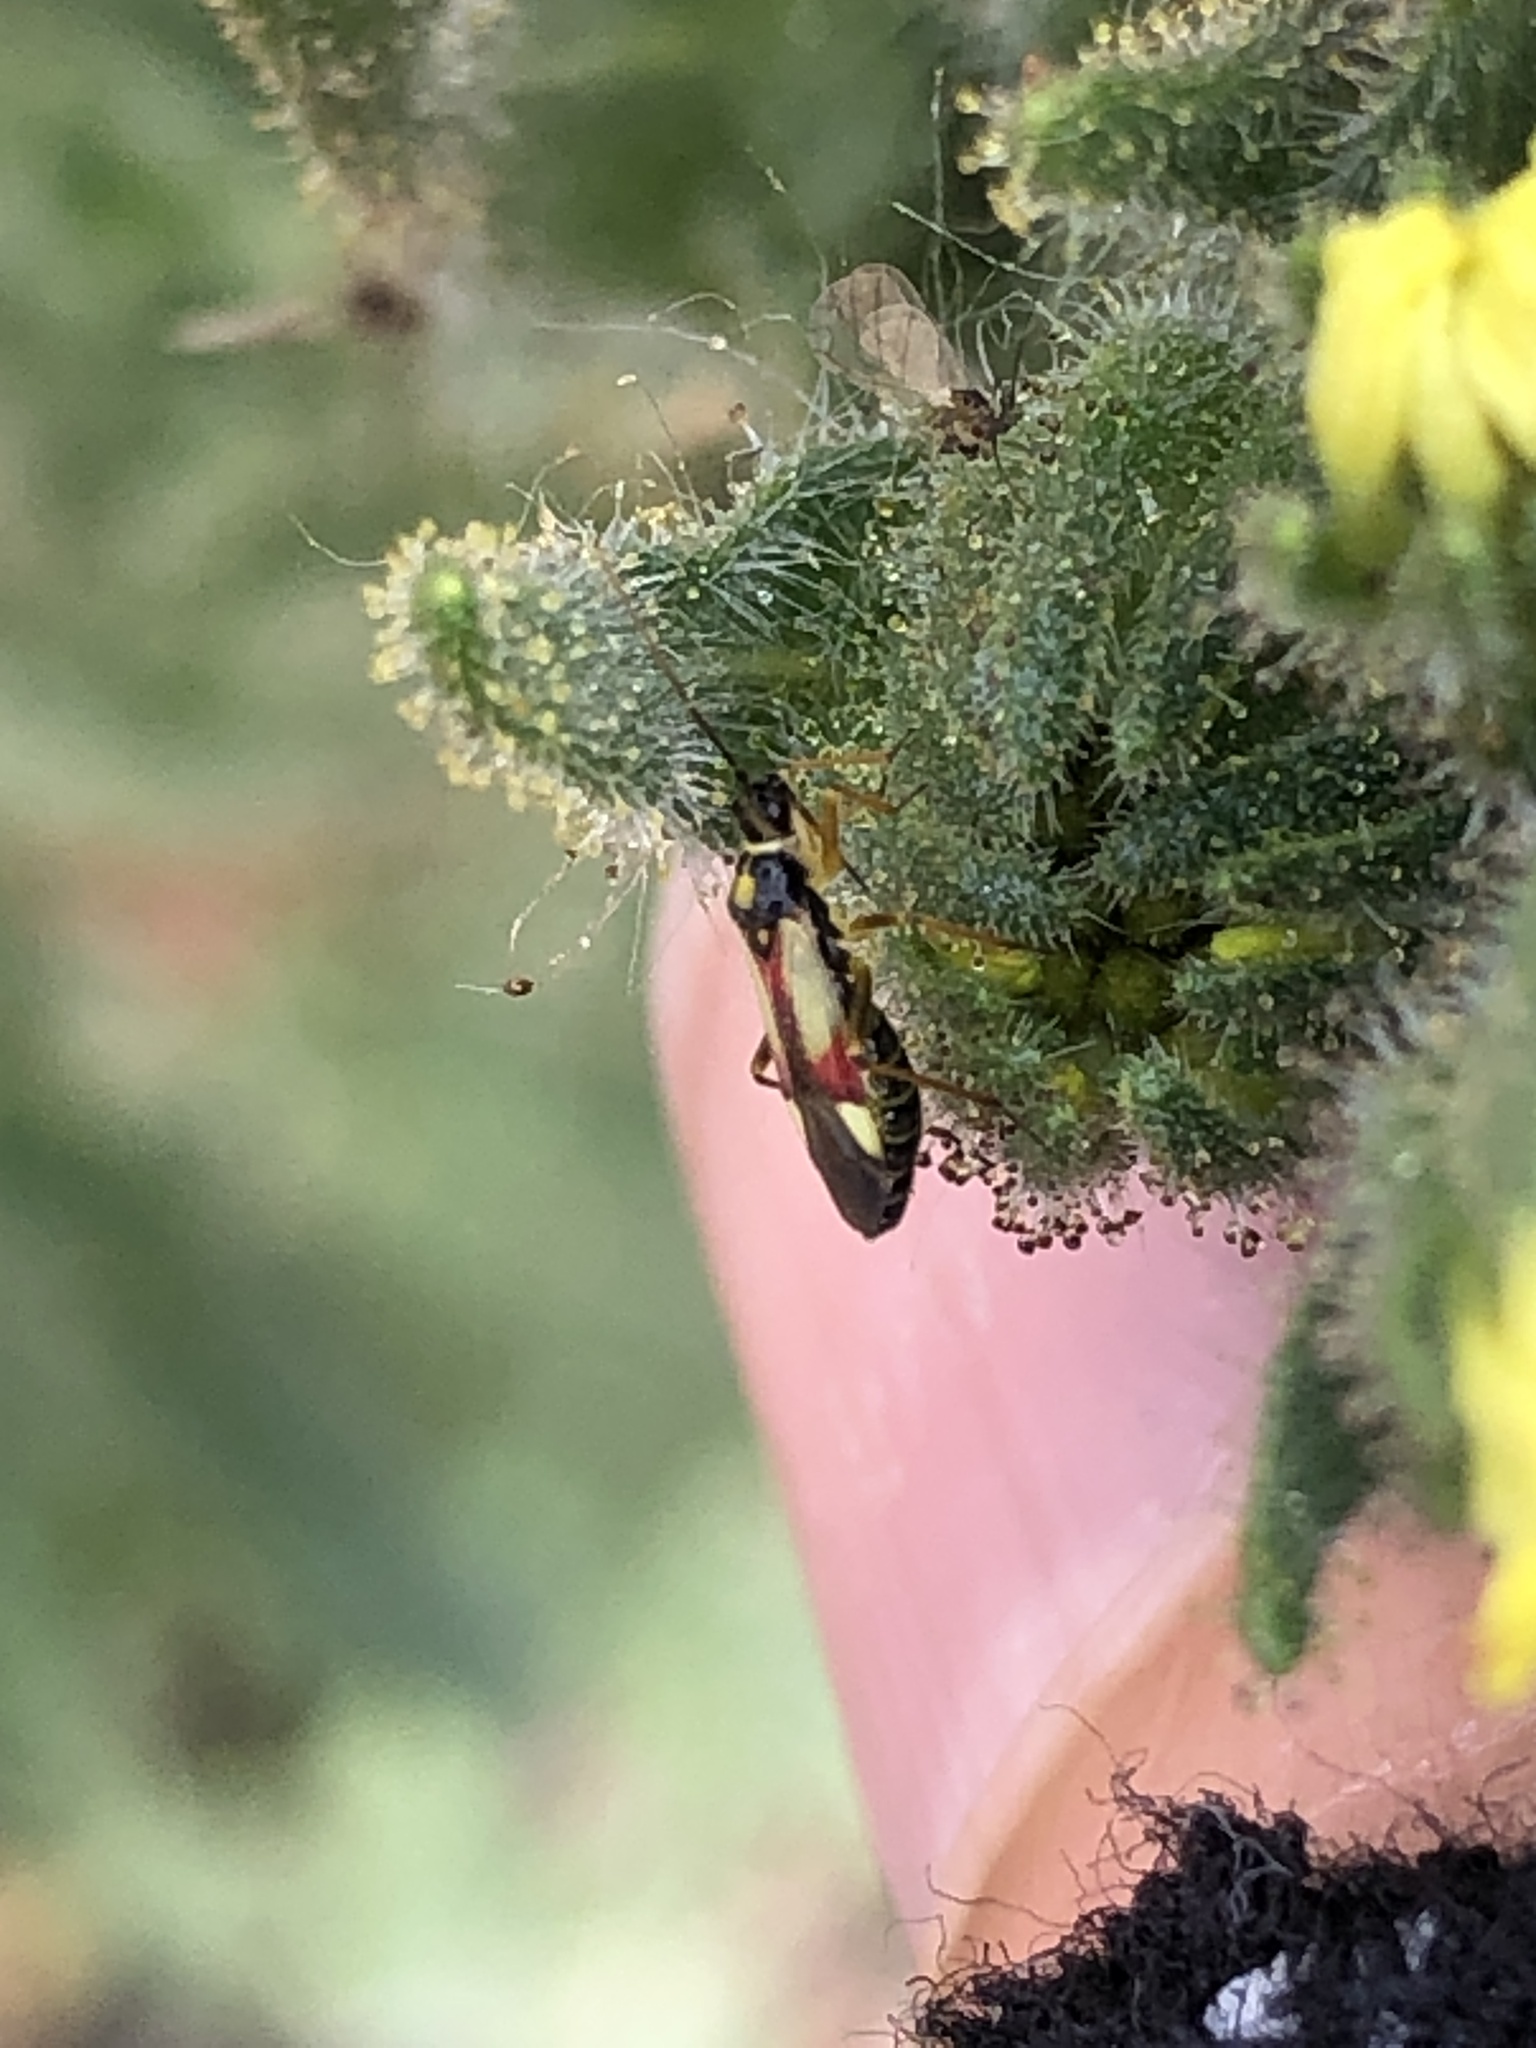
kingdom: Animalia
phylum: Arthropoda
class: Insecta
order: Hemiptera
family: Miridae
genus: Tupiocoris
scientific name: Tupiocoris californicus
